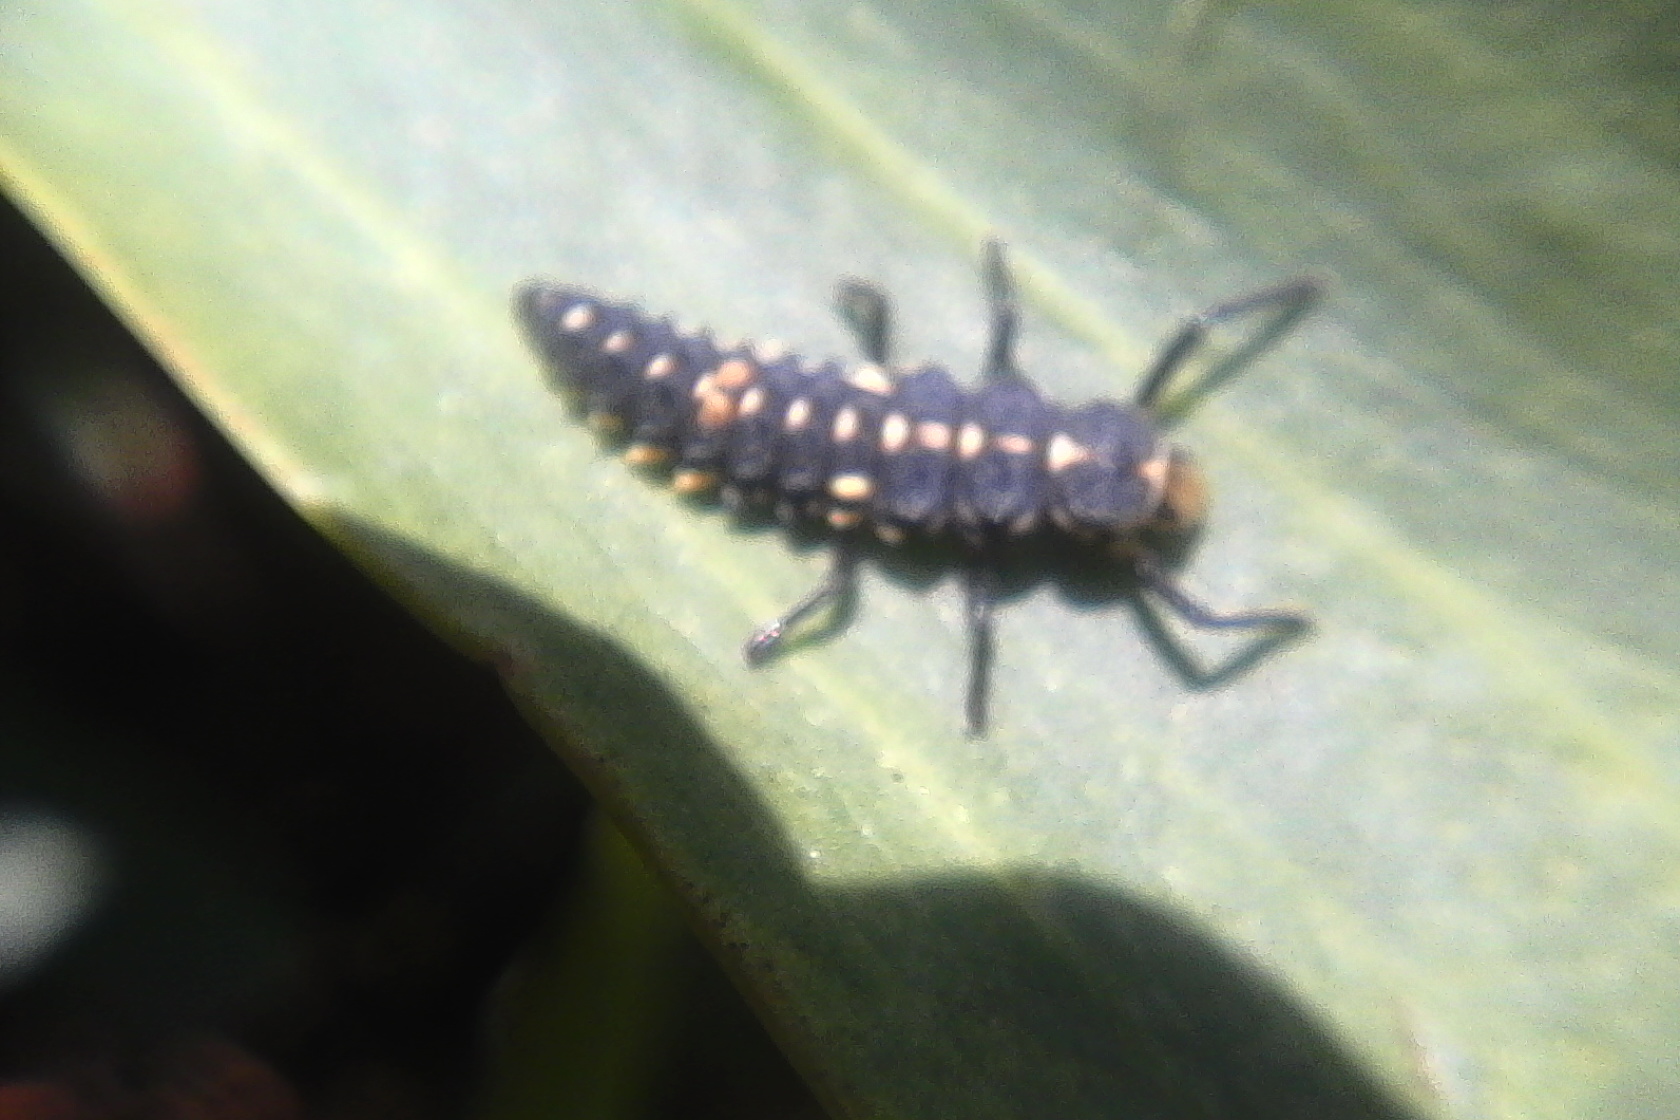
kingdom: Animalia
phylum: Arthropoda
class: Insecta
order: Coleoptera
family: Coccinellidae
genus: Cleobora
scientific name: Cleobora
